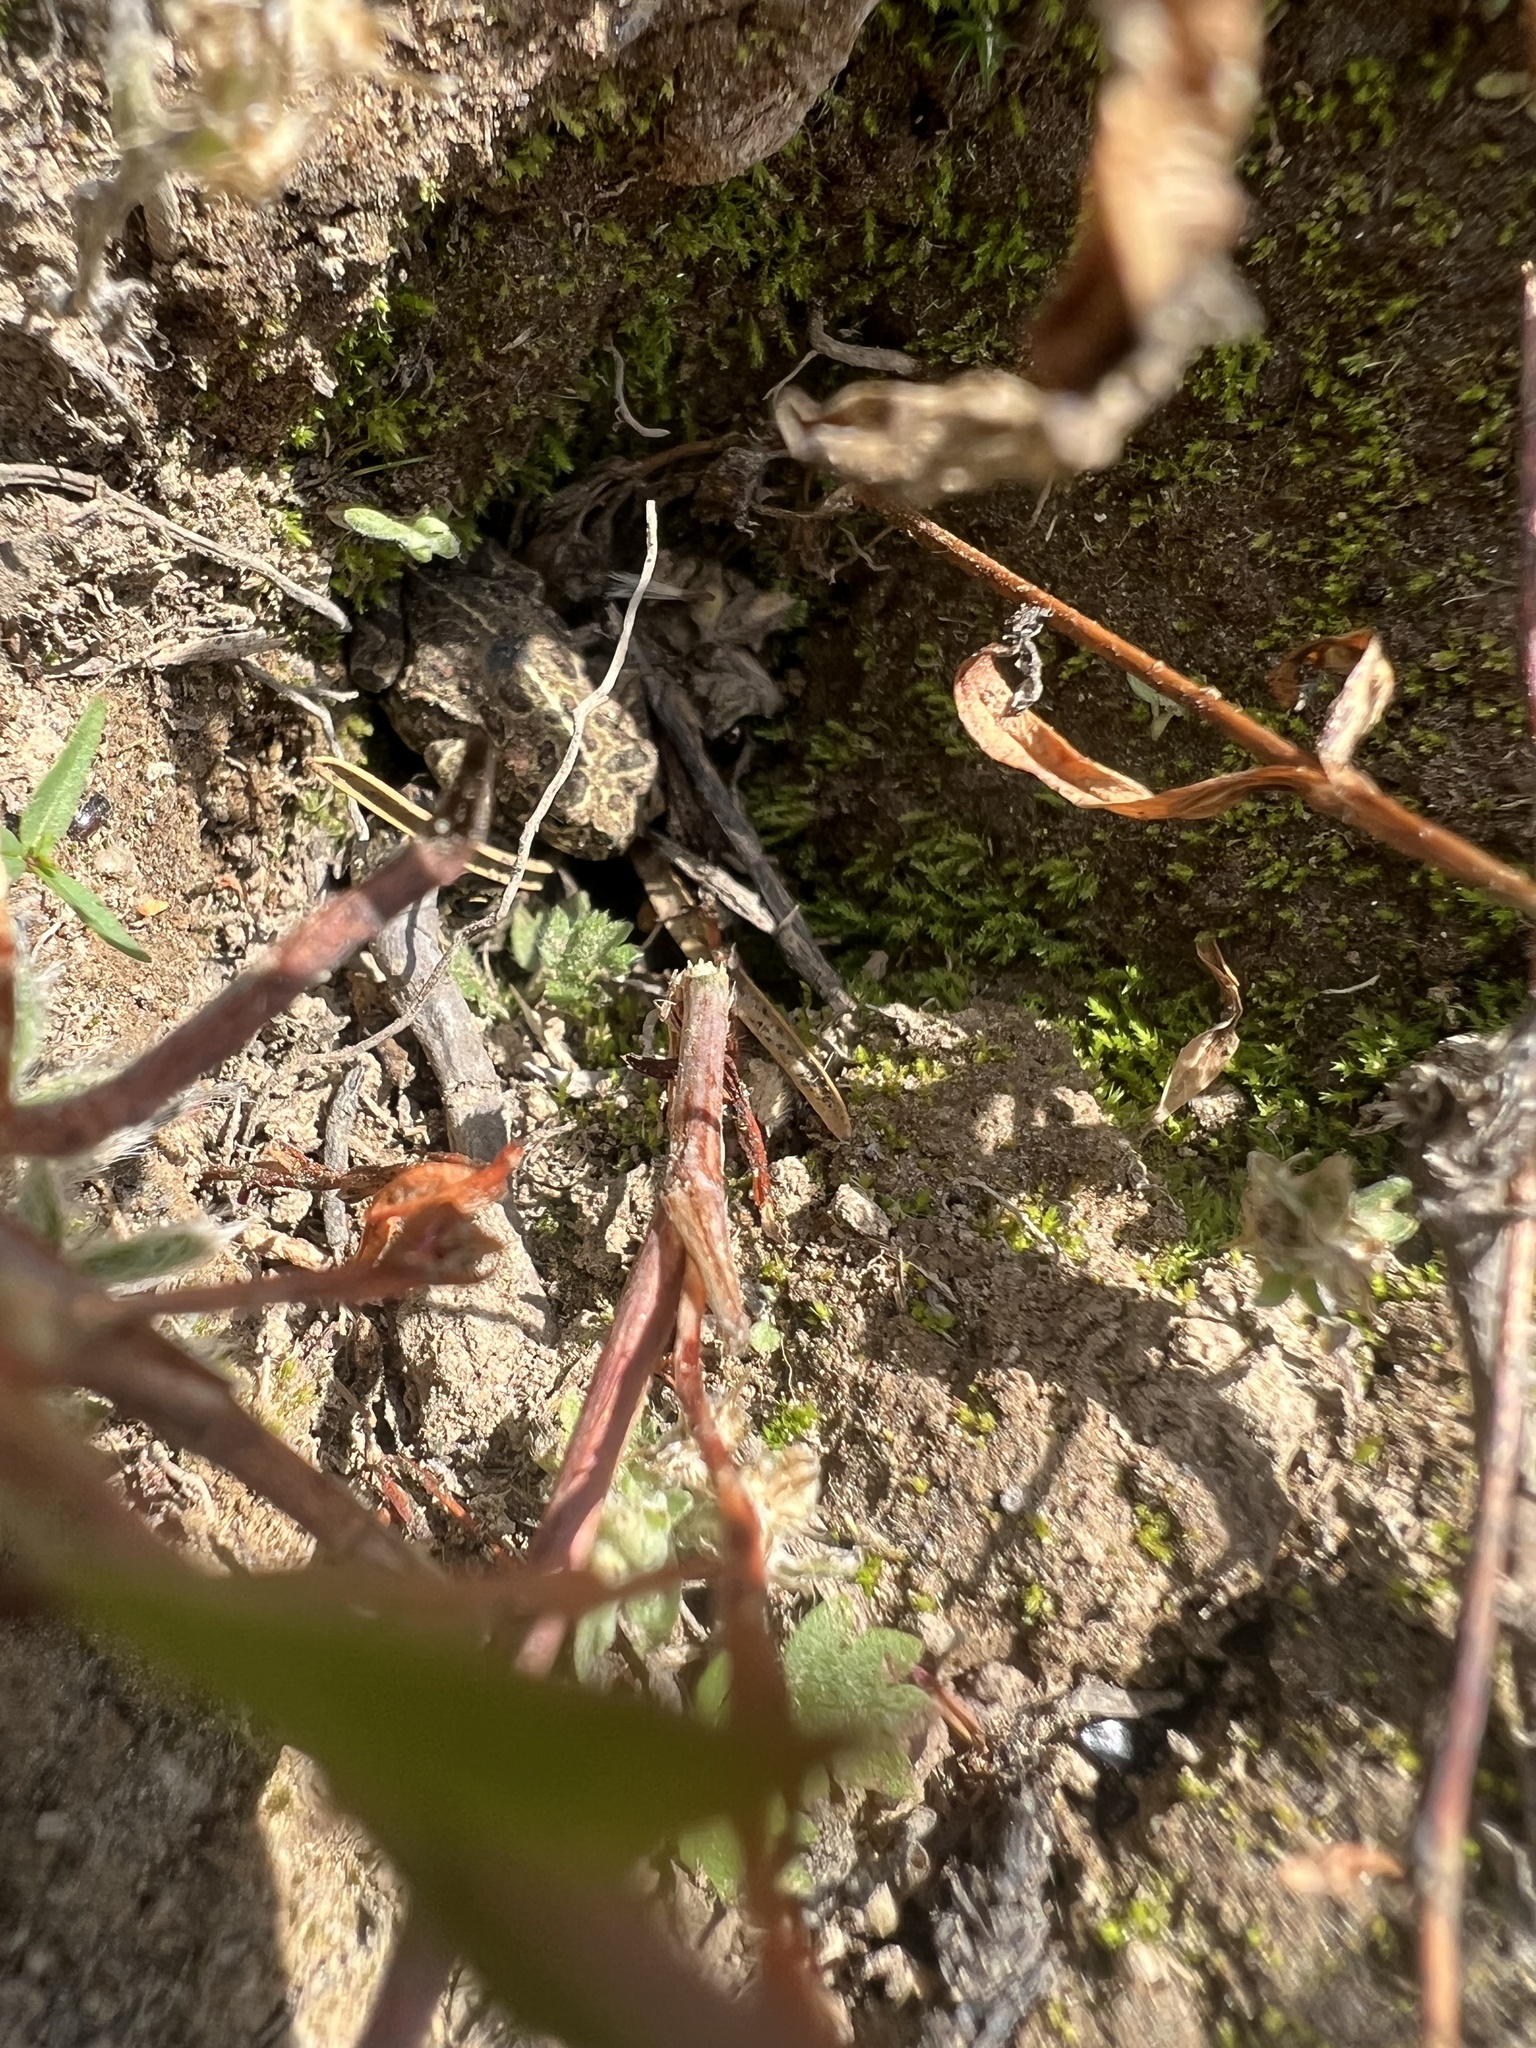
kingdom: Animalia
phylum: Chordata
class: Amphibia
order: Anura
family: Bufonidae
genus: Anaxyrus
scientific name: Anaxyrus boreas
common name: Western toad
